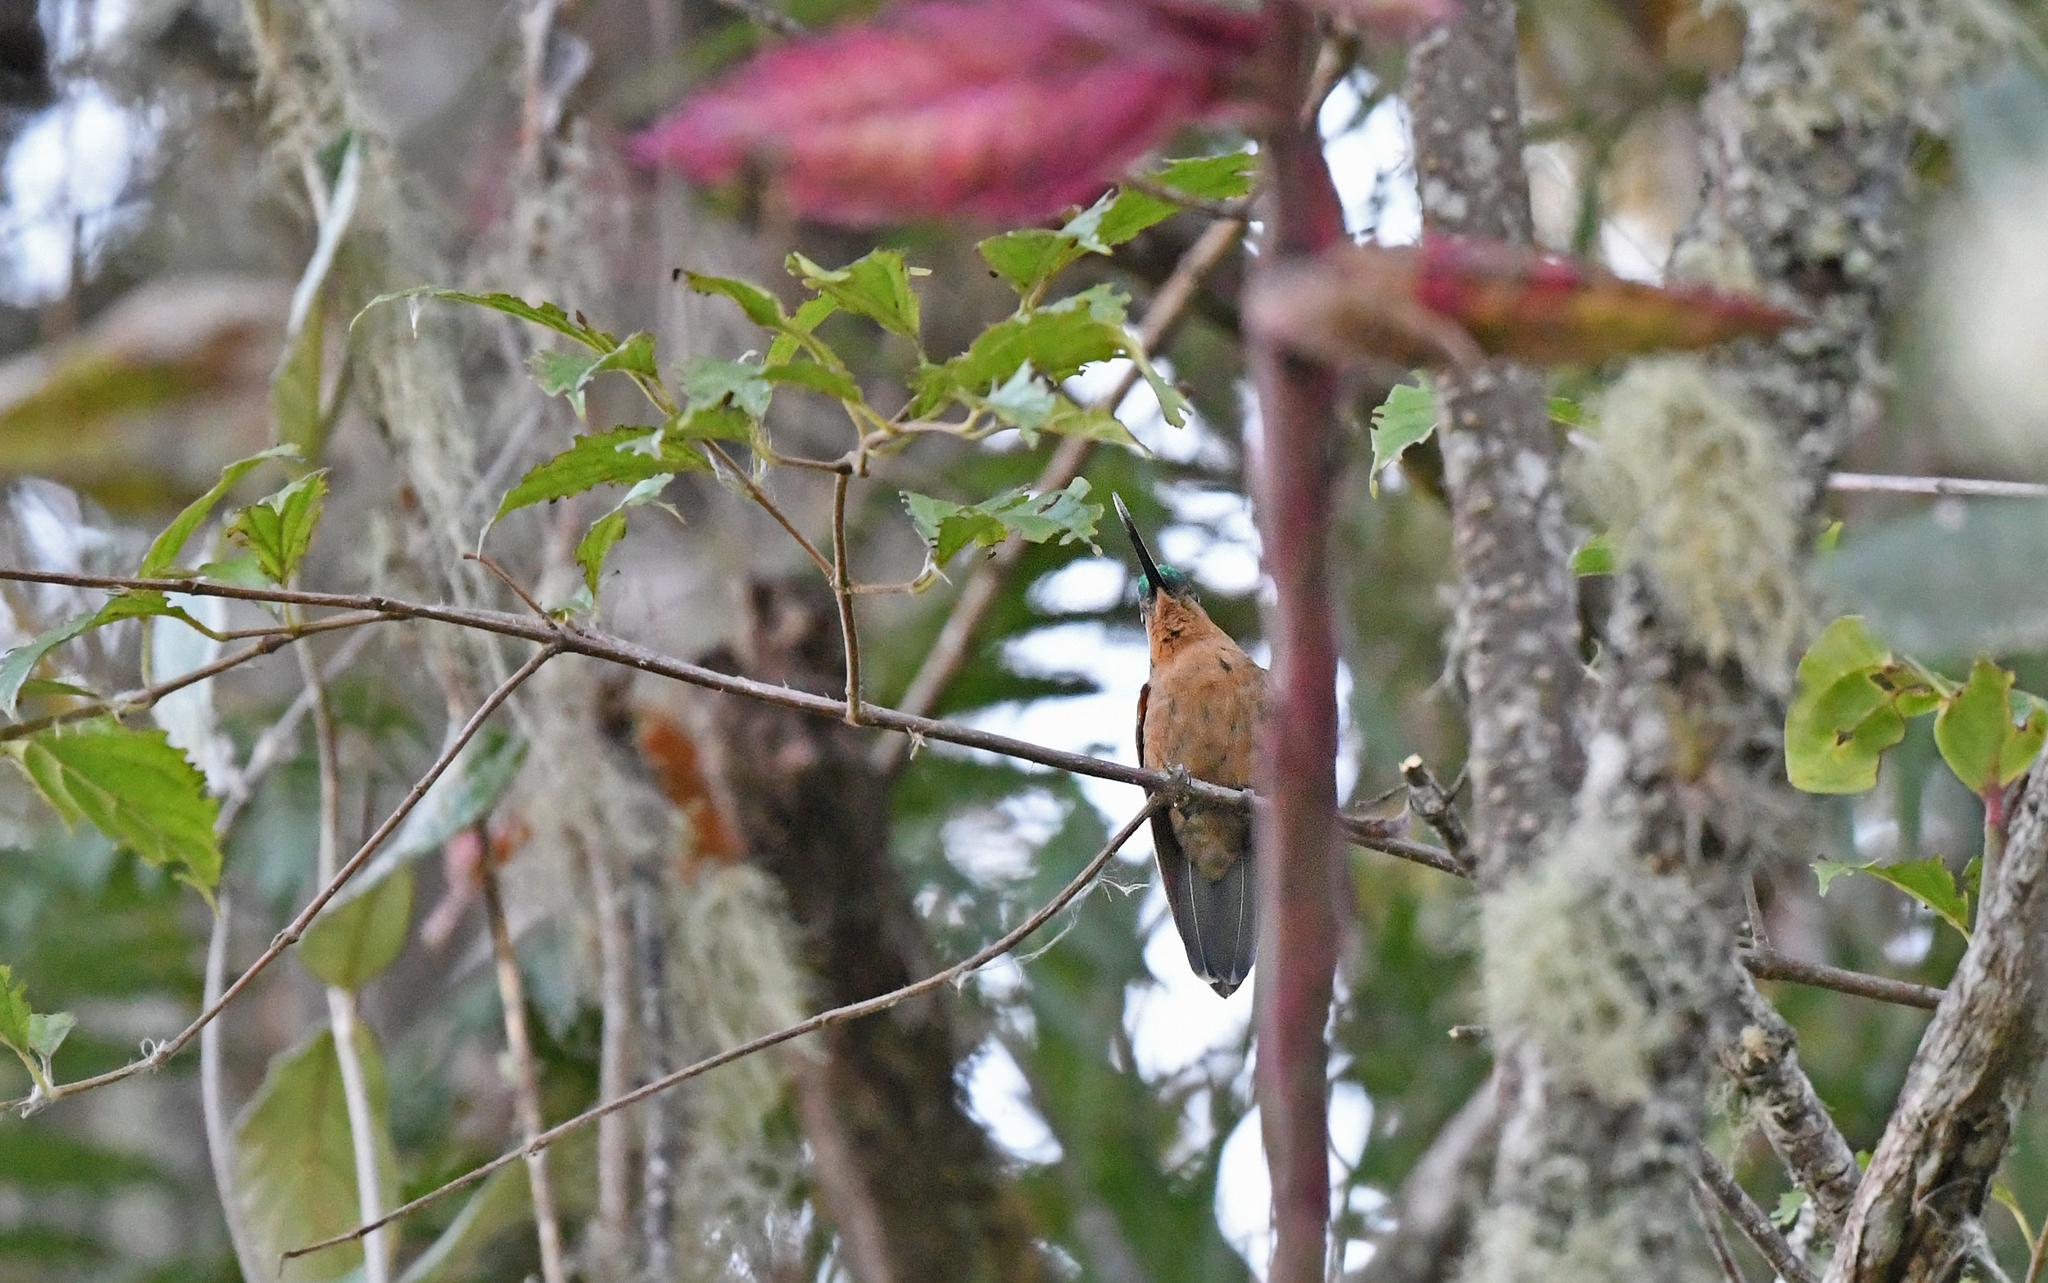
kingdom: Animalia
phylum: Chordata
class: Aves
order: Apodiformes
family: Trochilidae
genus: Coeligena
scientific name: Coeligena phalerata
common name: White-tailed starfrontlet
